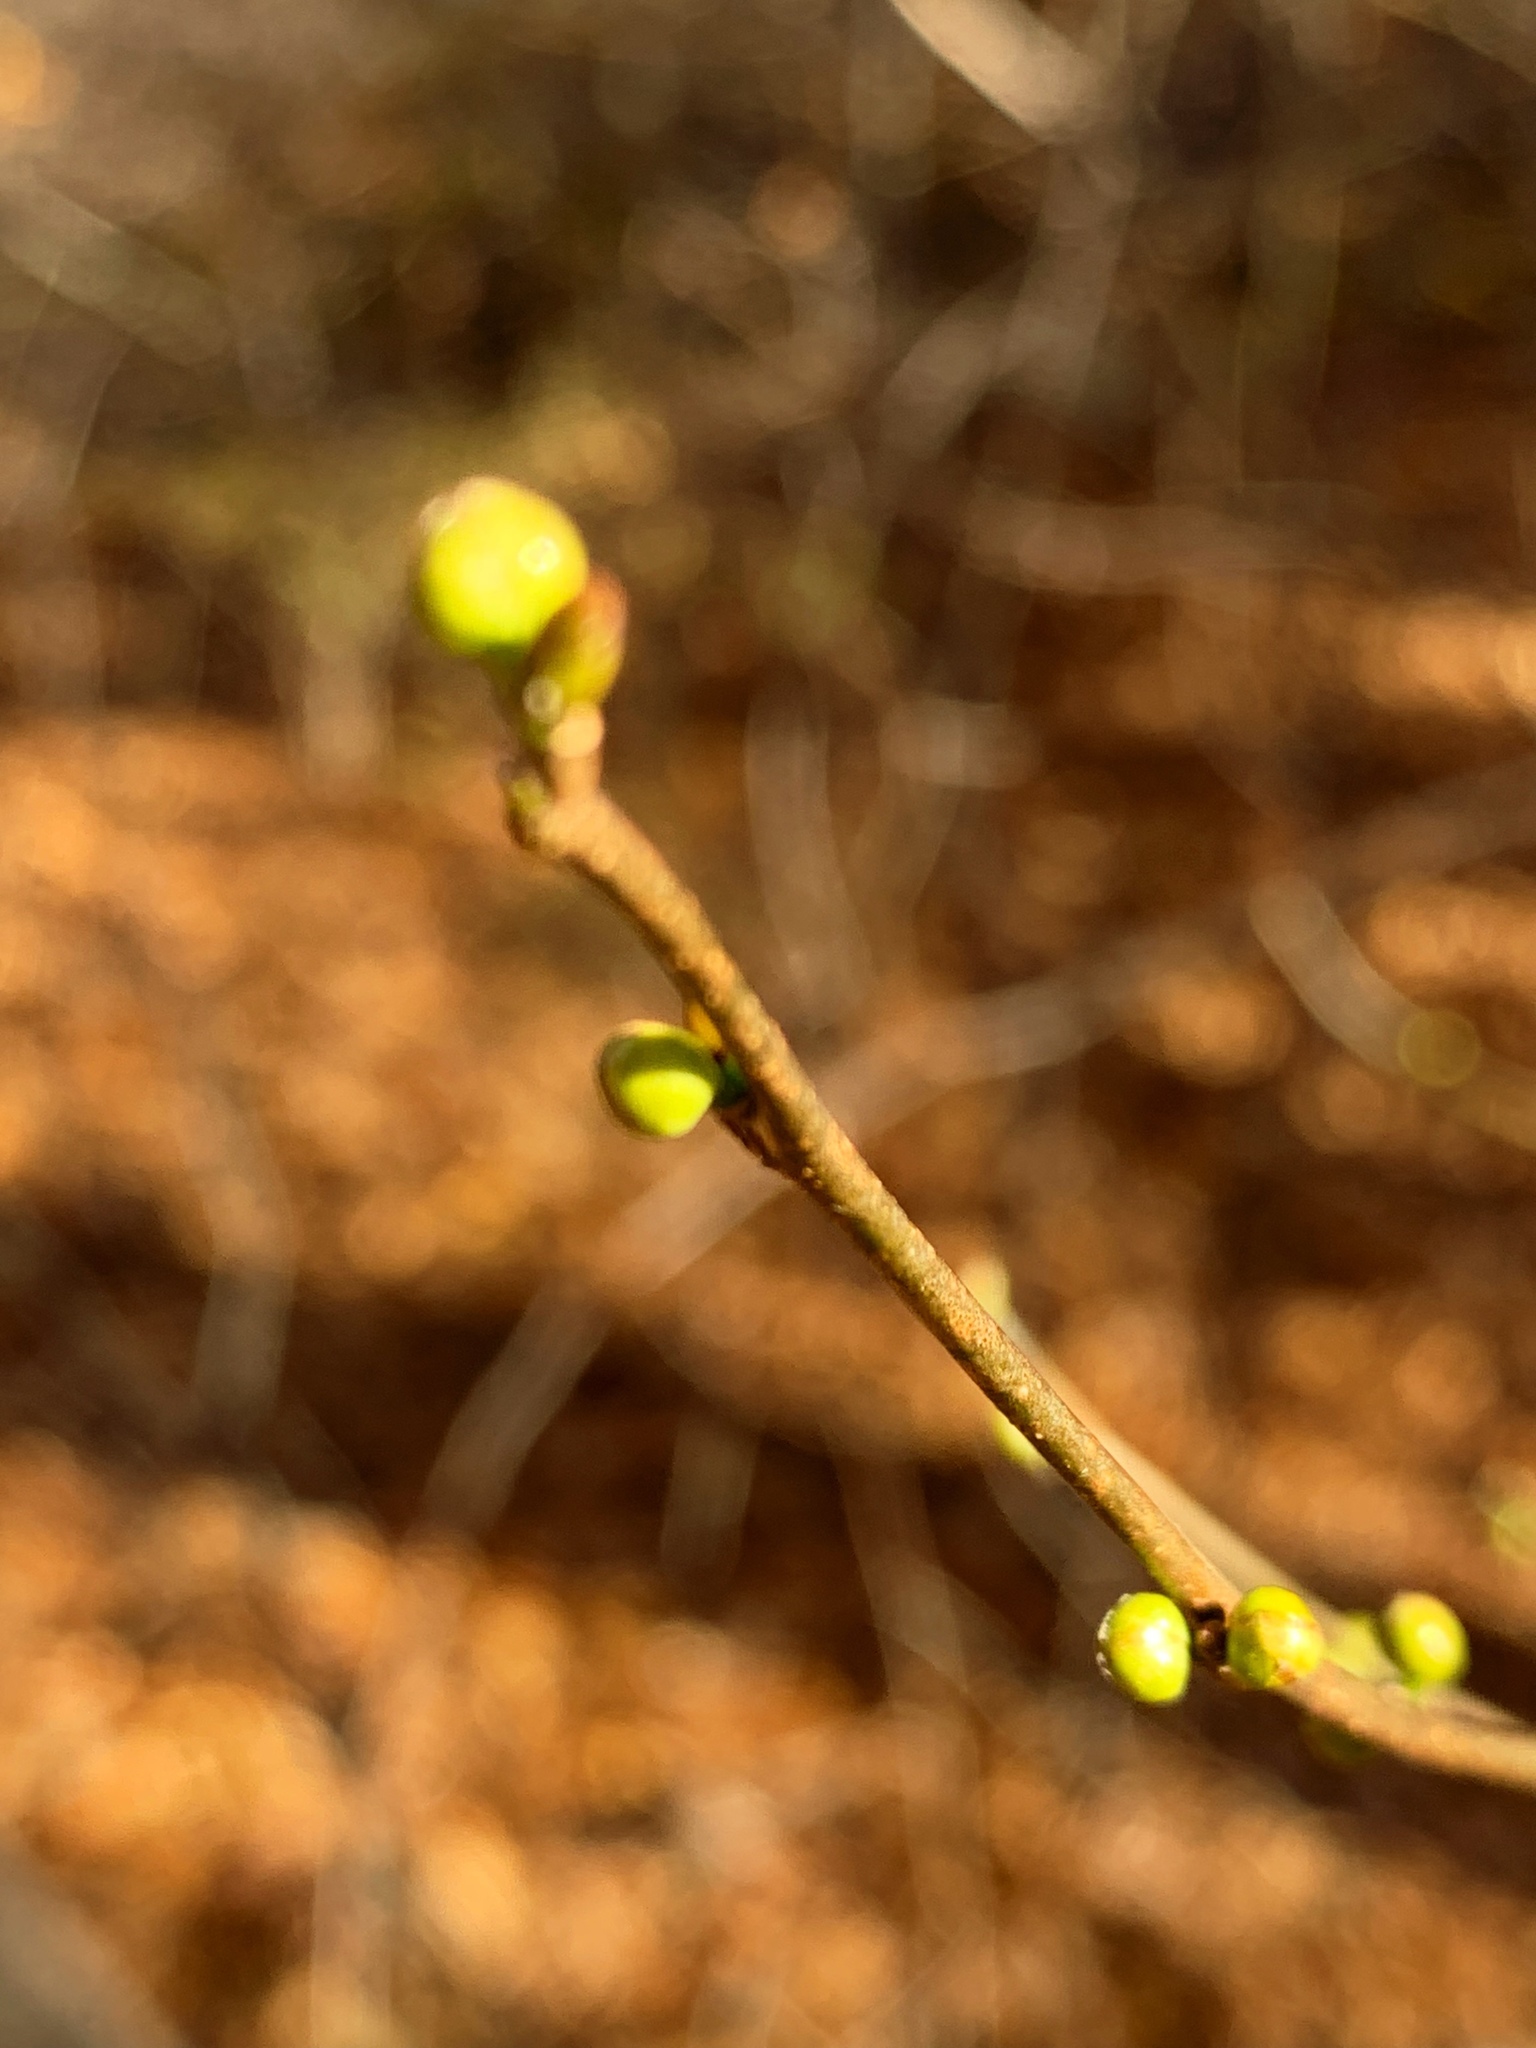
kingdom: Plantae
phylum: Tracheophyta
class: Magnoliopsida
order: Laurales
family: Lauraceae
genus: Lindera
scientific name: Lindera benzoin
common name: Spicebush
